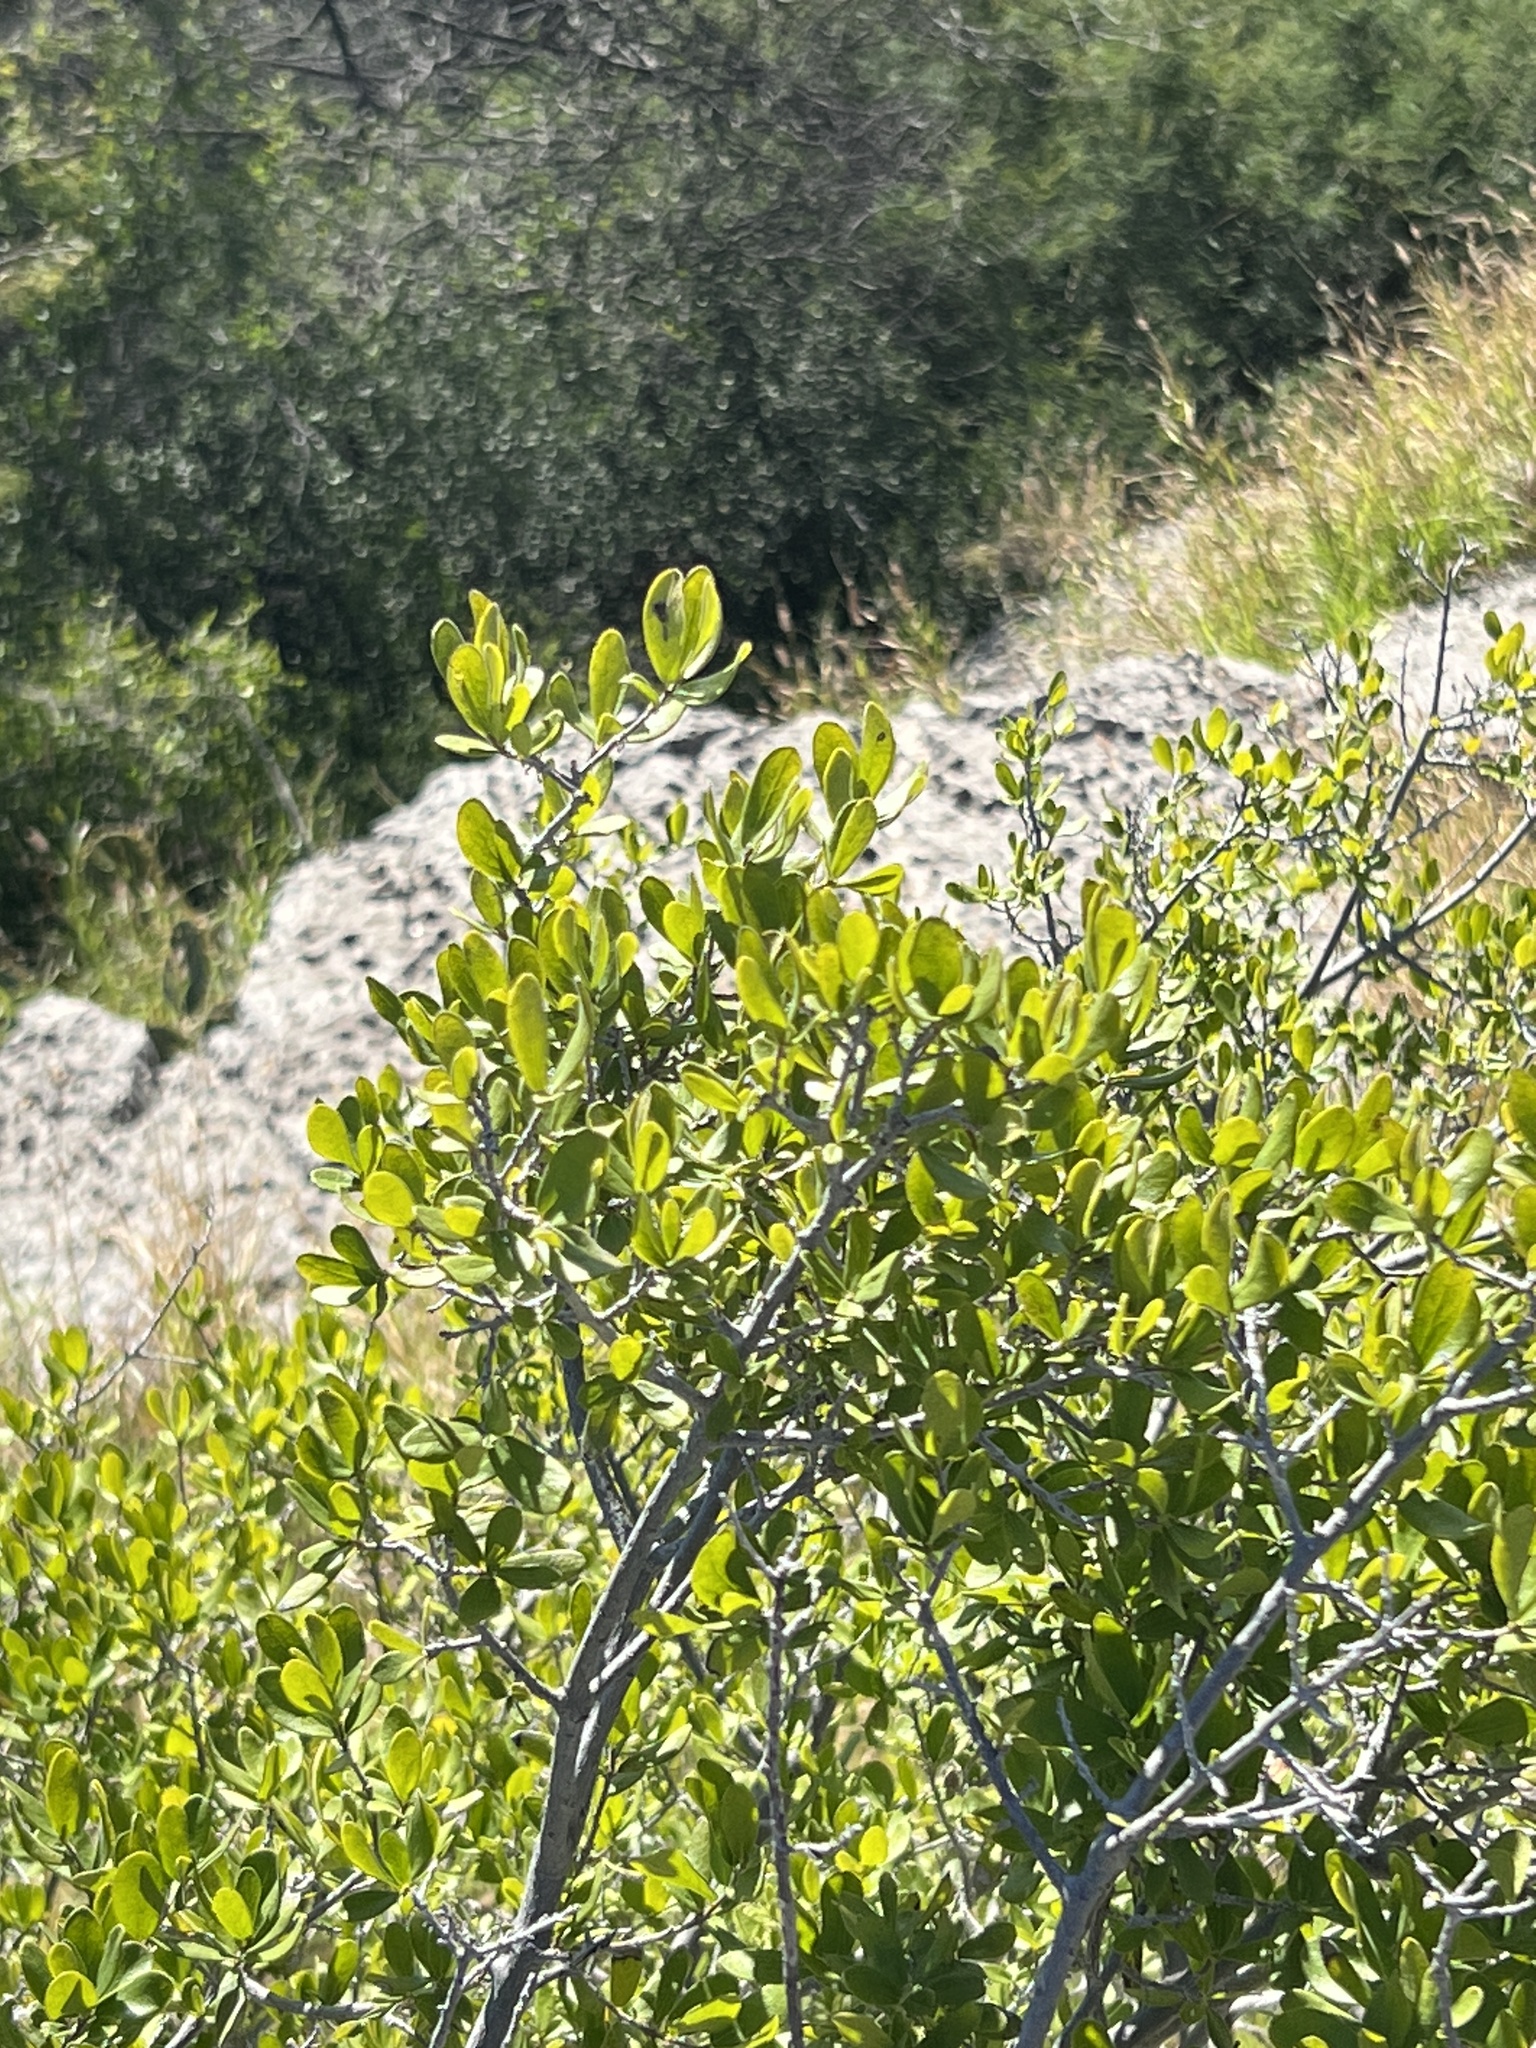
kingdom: Plantae
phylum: Tracheophyta
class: Magnoliopsida
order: Ericales
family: Ebenaceae
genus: Diospyros
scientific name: Diospyros texana
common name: Texas persimmon
